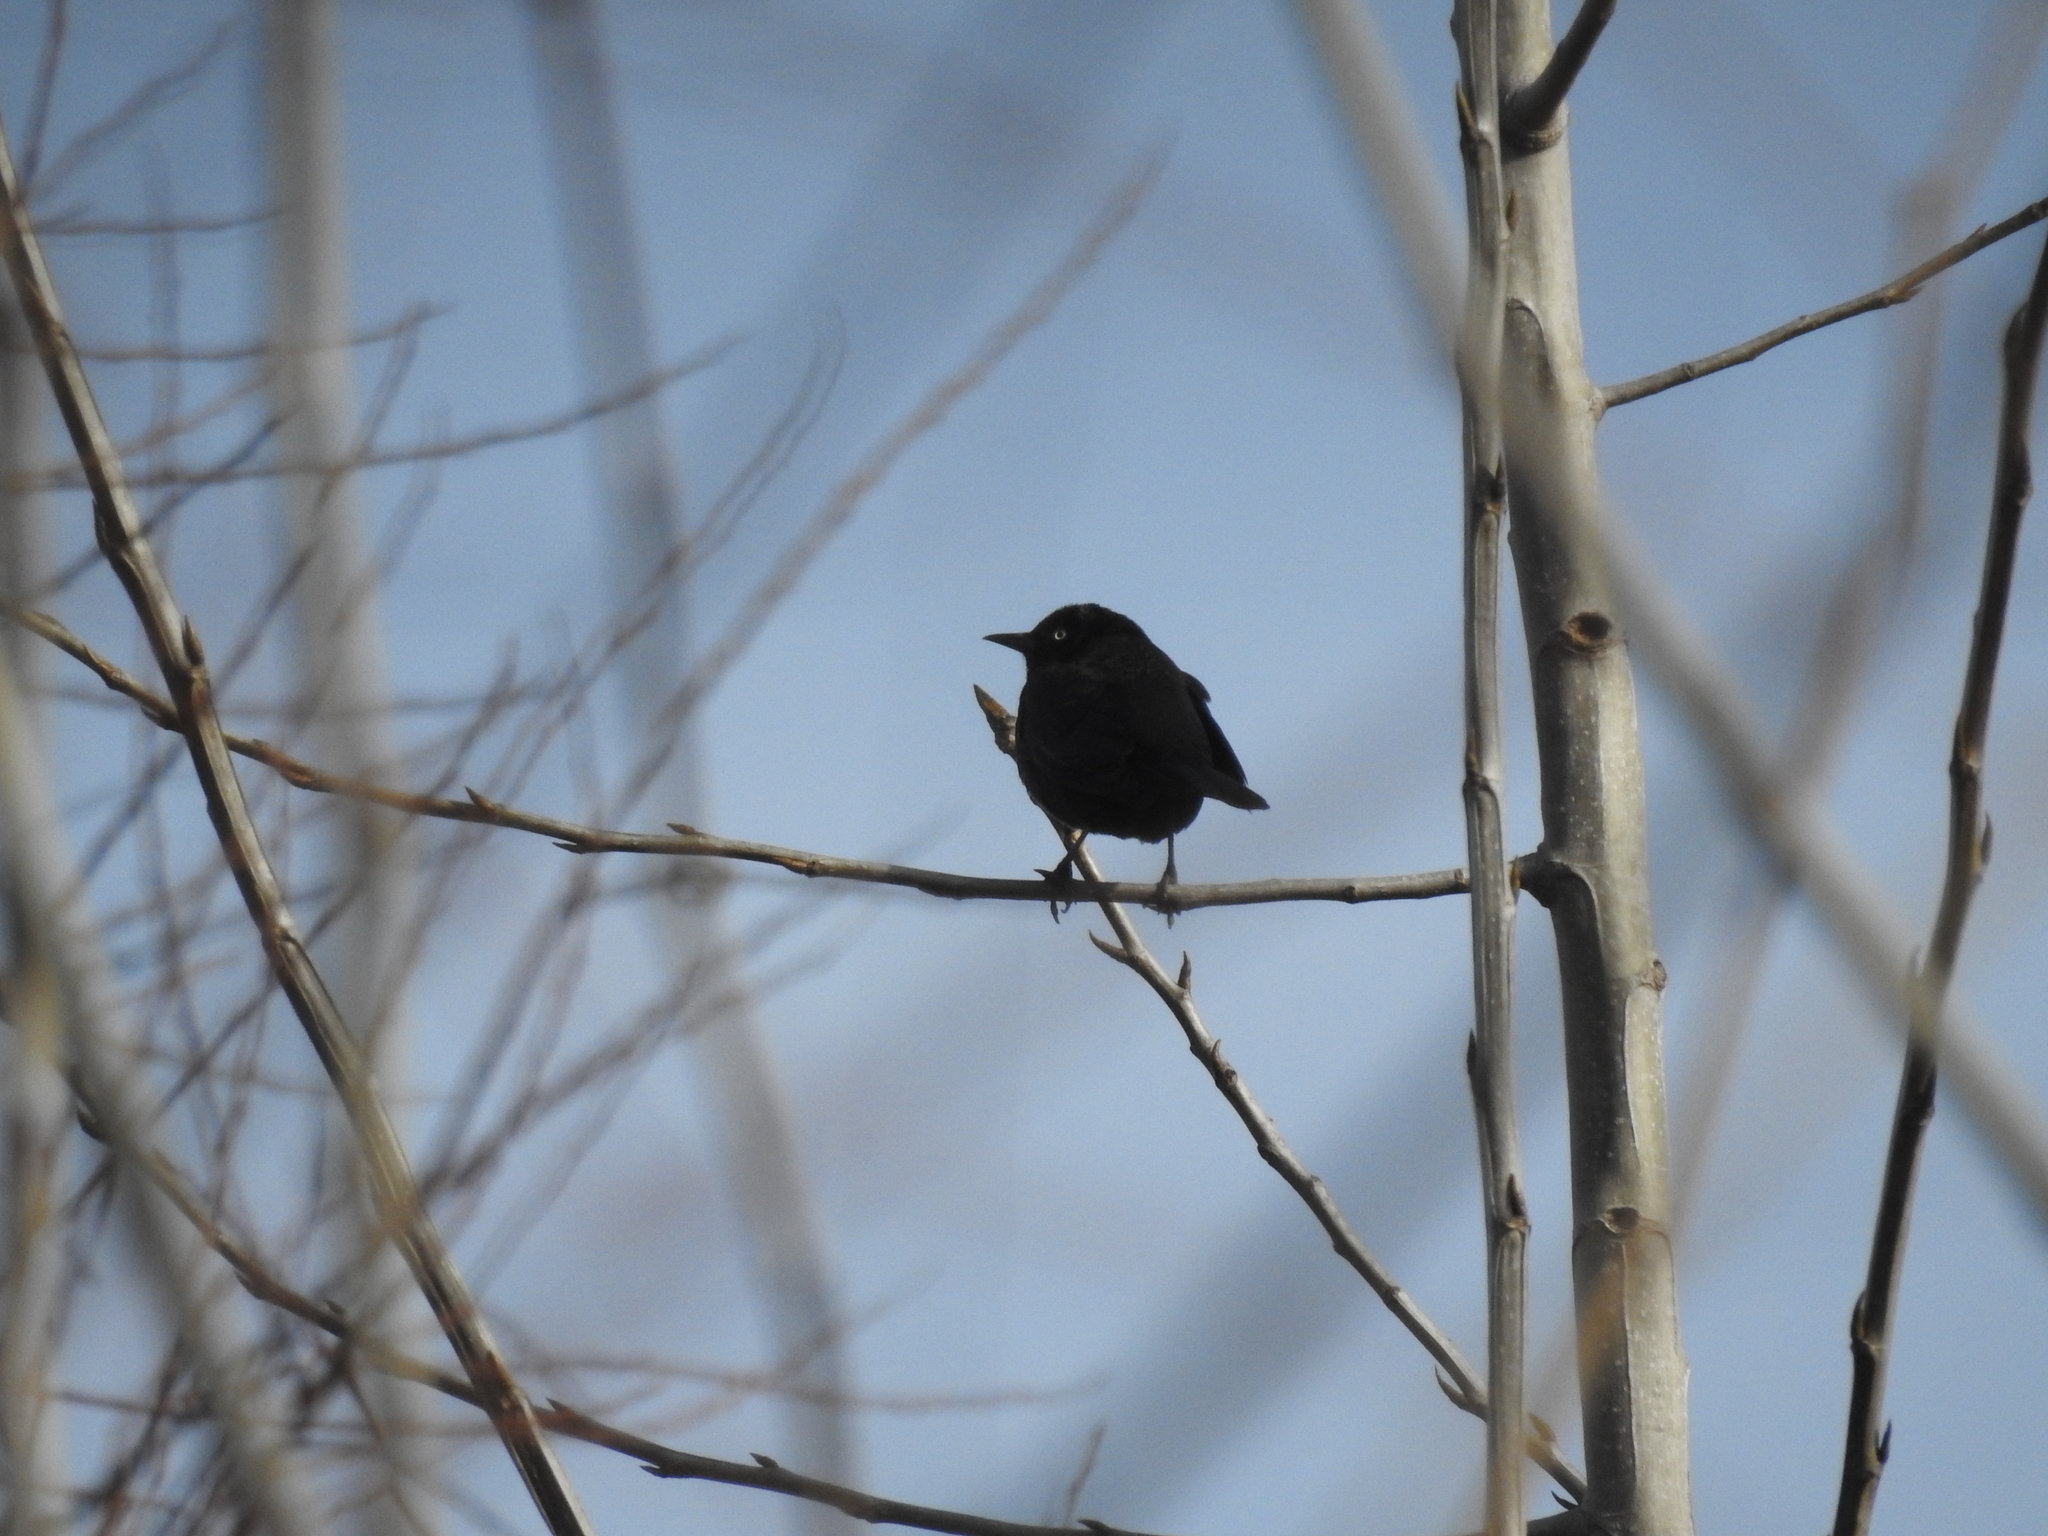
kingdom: Animalia
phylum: Chordata
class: Aves
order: Passeriformes
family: Icteridae
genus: Euphagus
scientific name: Euphagus carolinus
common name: Rusty blackbird
